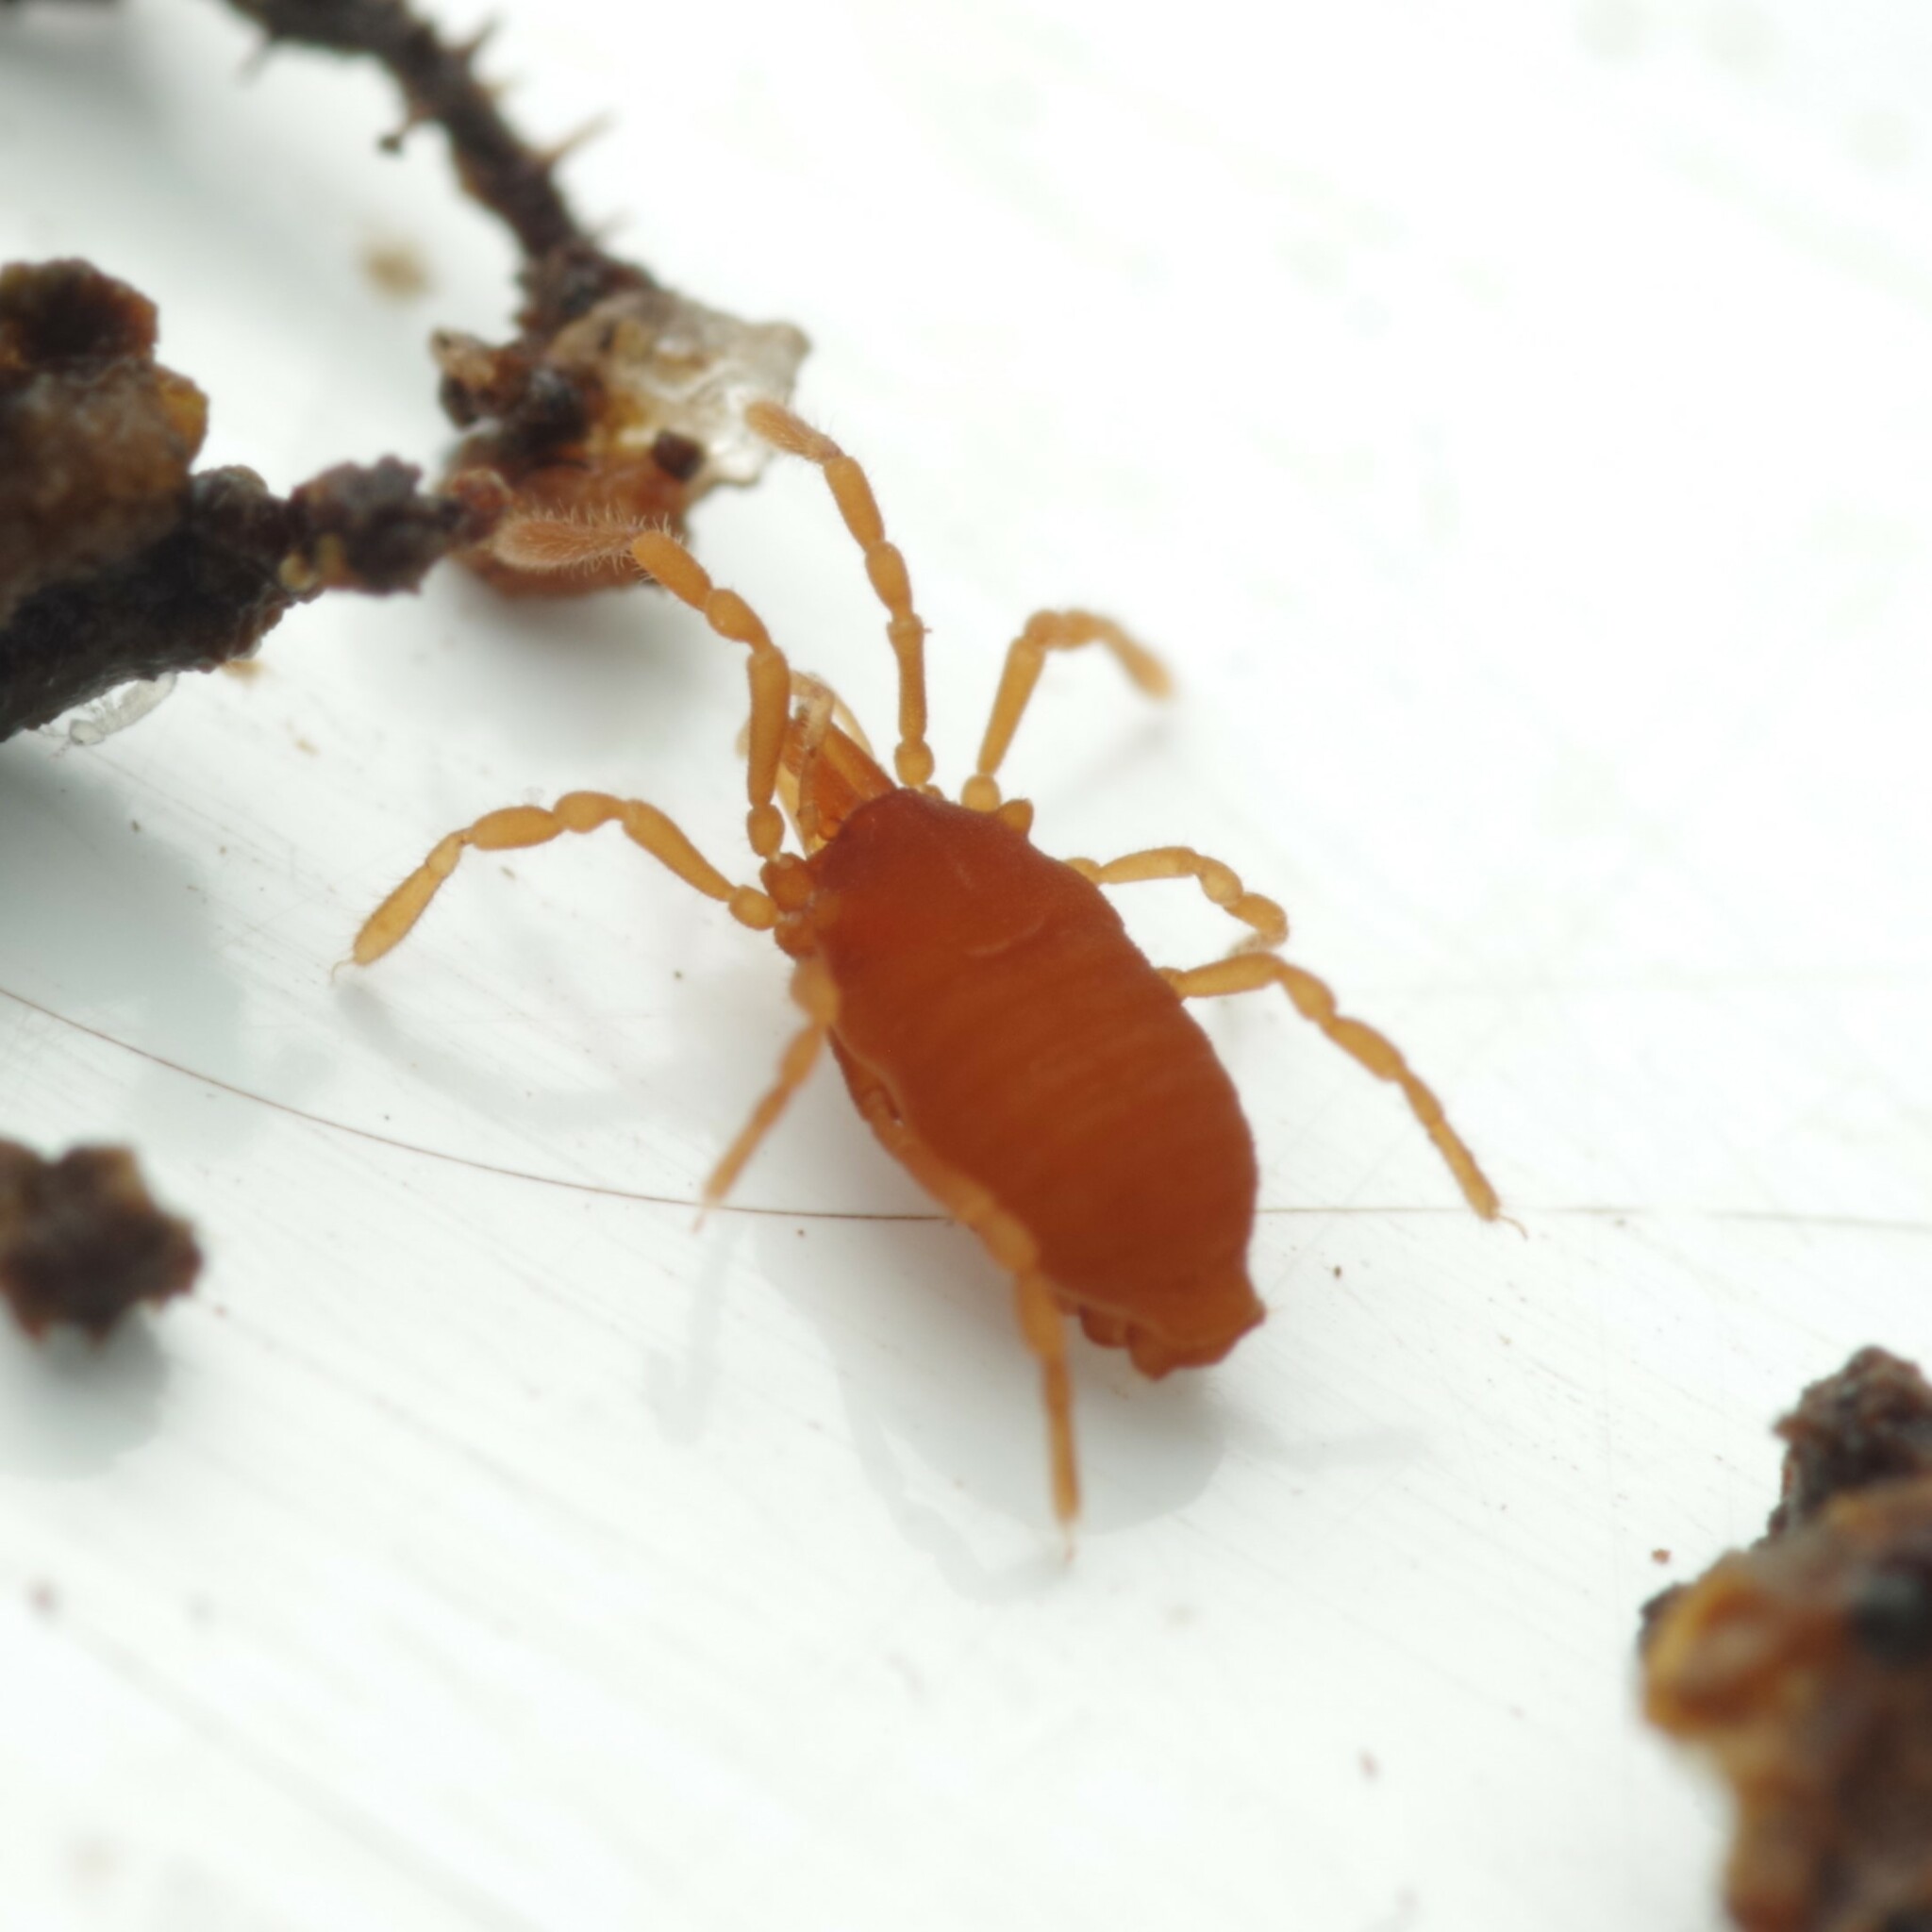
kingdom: Animalia
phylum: Arthropoda
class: Arachnida
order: Opiliones
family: Sironidae
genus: Siro
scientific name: Siro rubens
